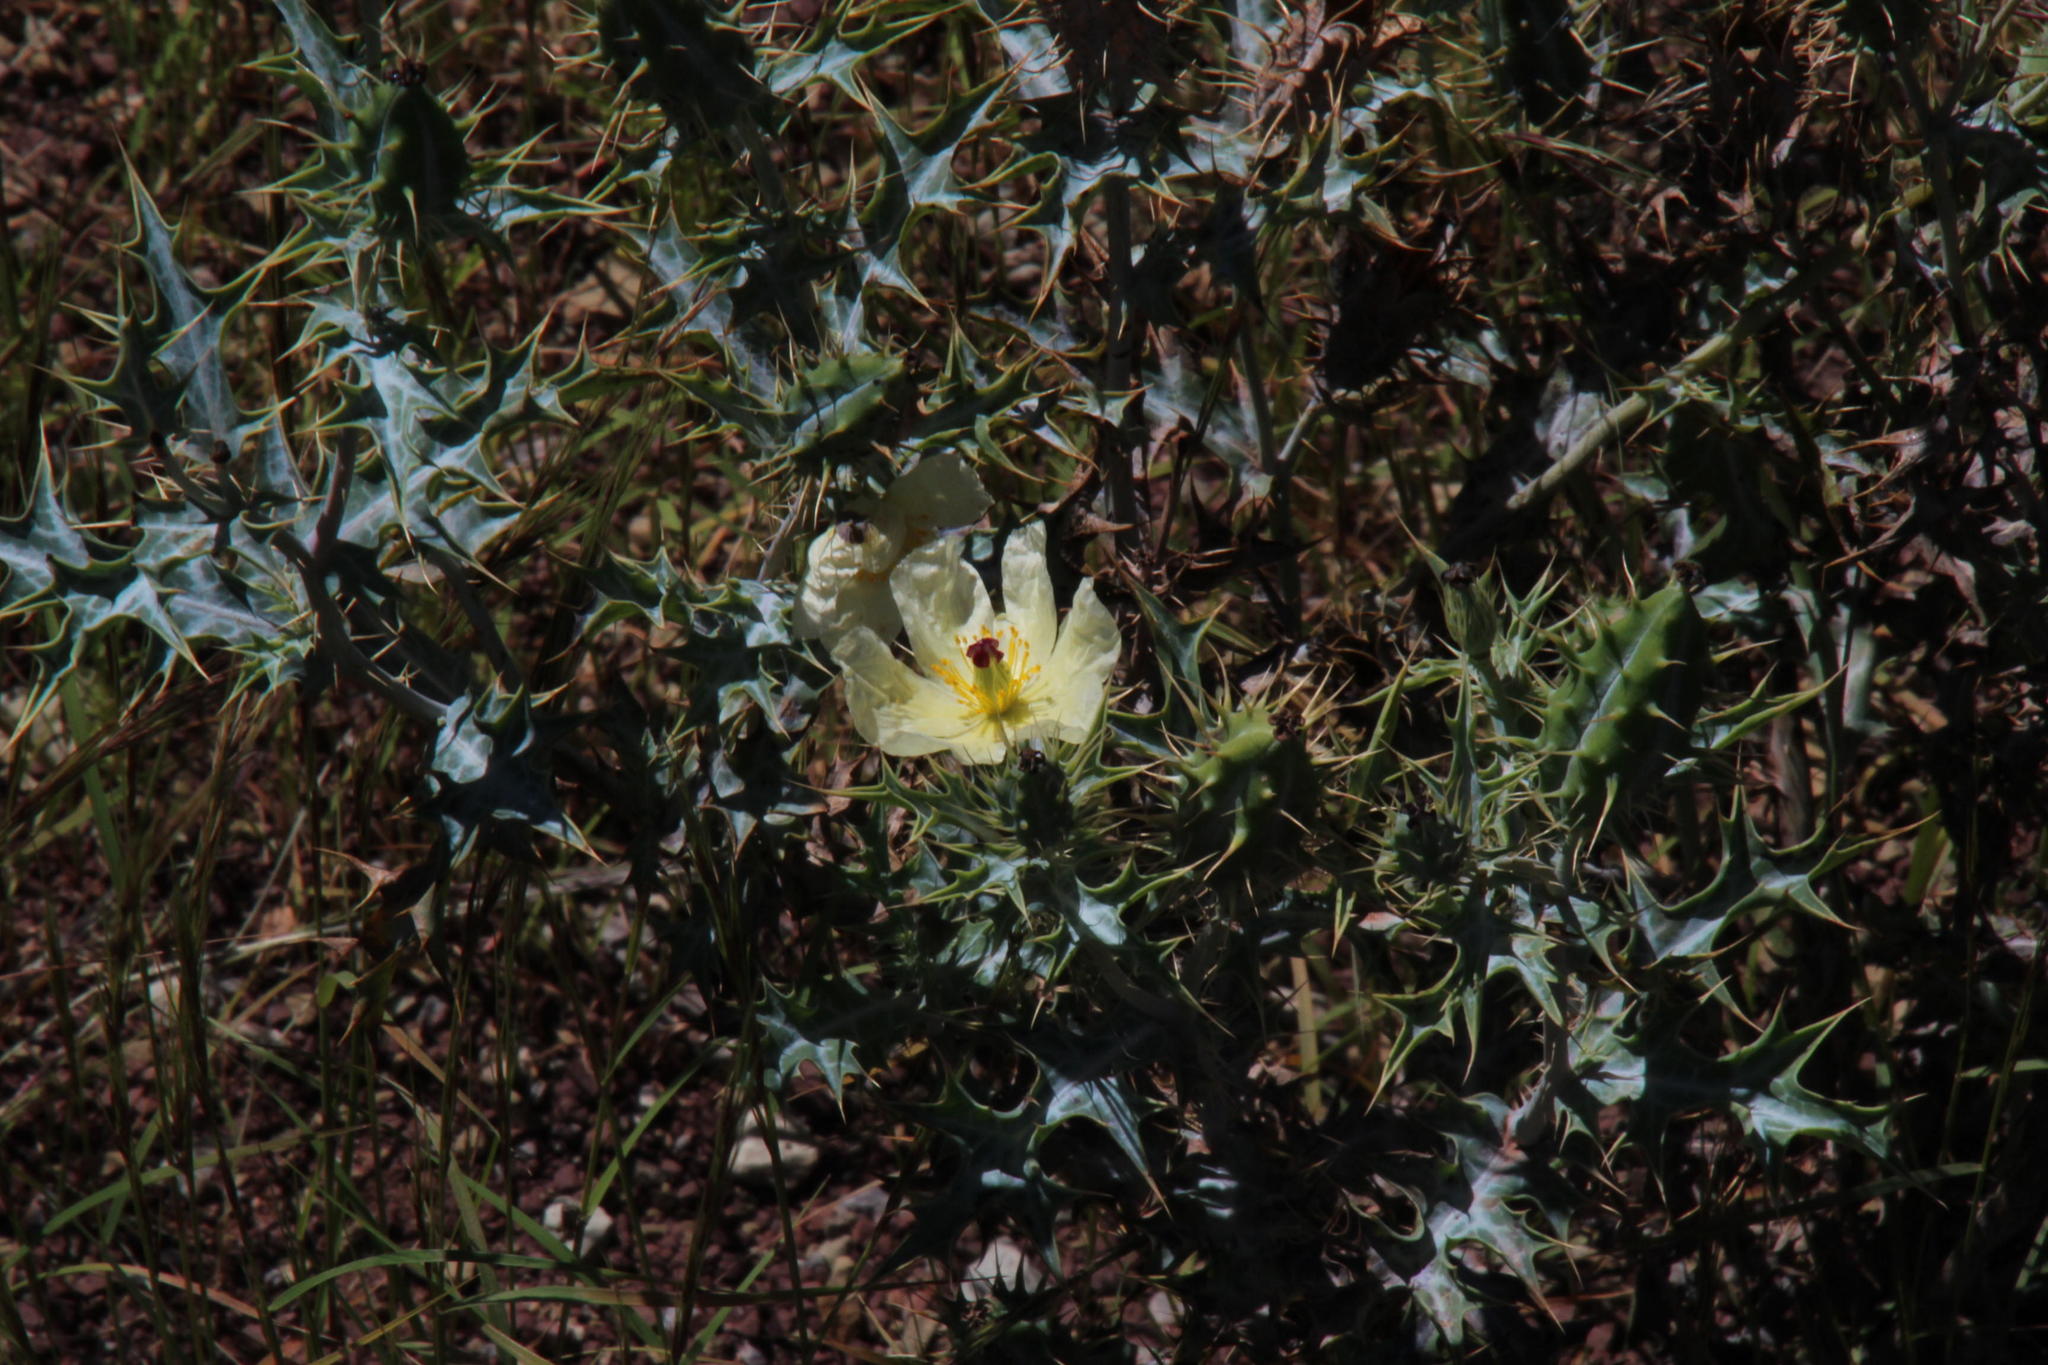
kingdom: Plantae
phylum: Tracheophyta
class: Magnoliopsida
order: Ranunculales
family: Papaveraceae
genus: Argemone
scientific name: Argemone ochroleuca
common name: White-flower mexican-poppy
